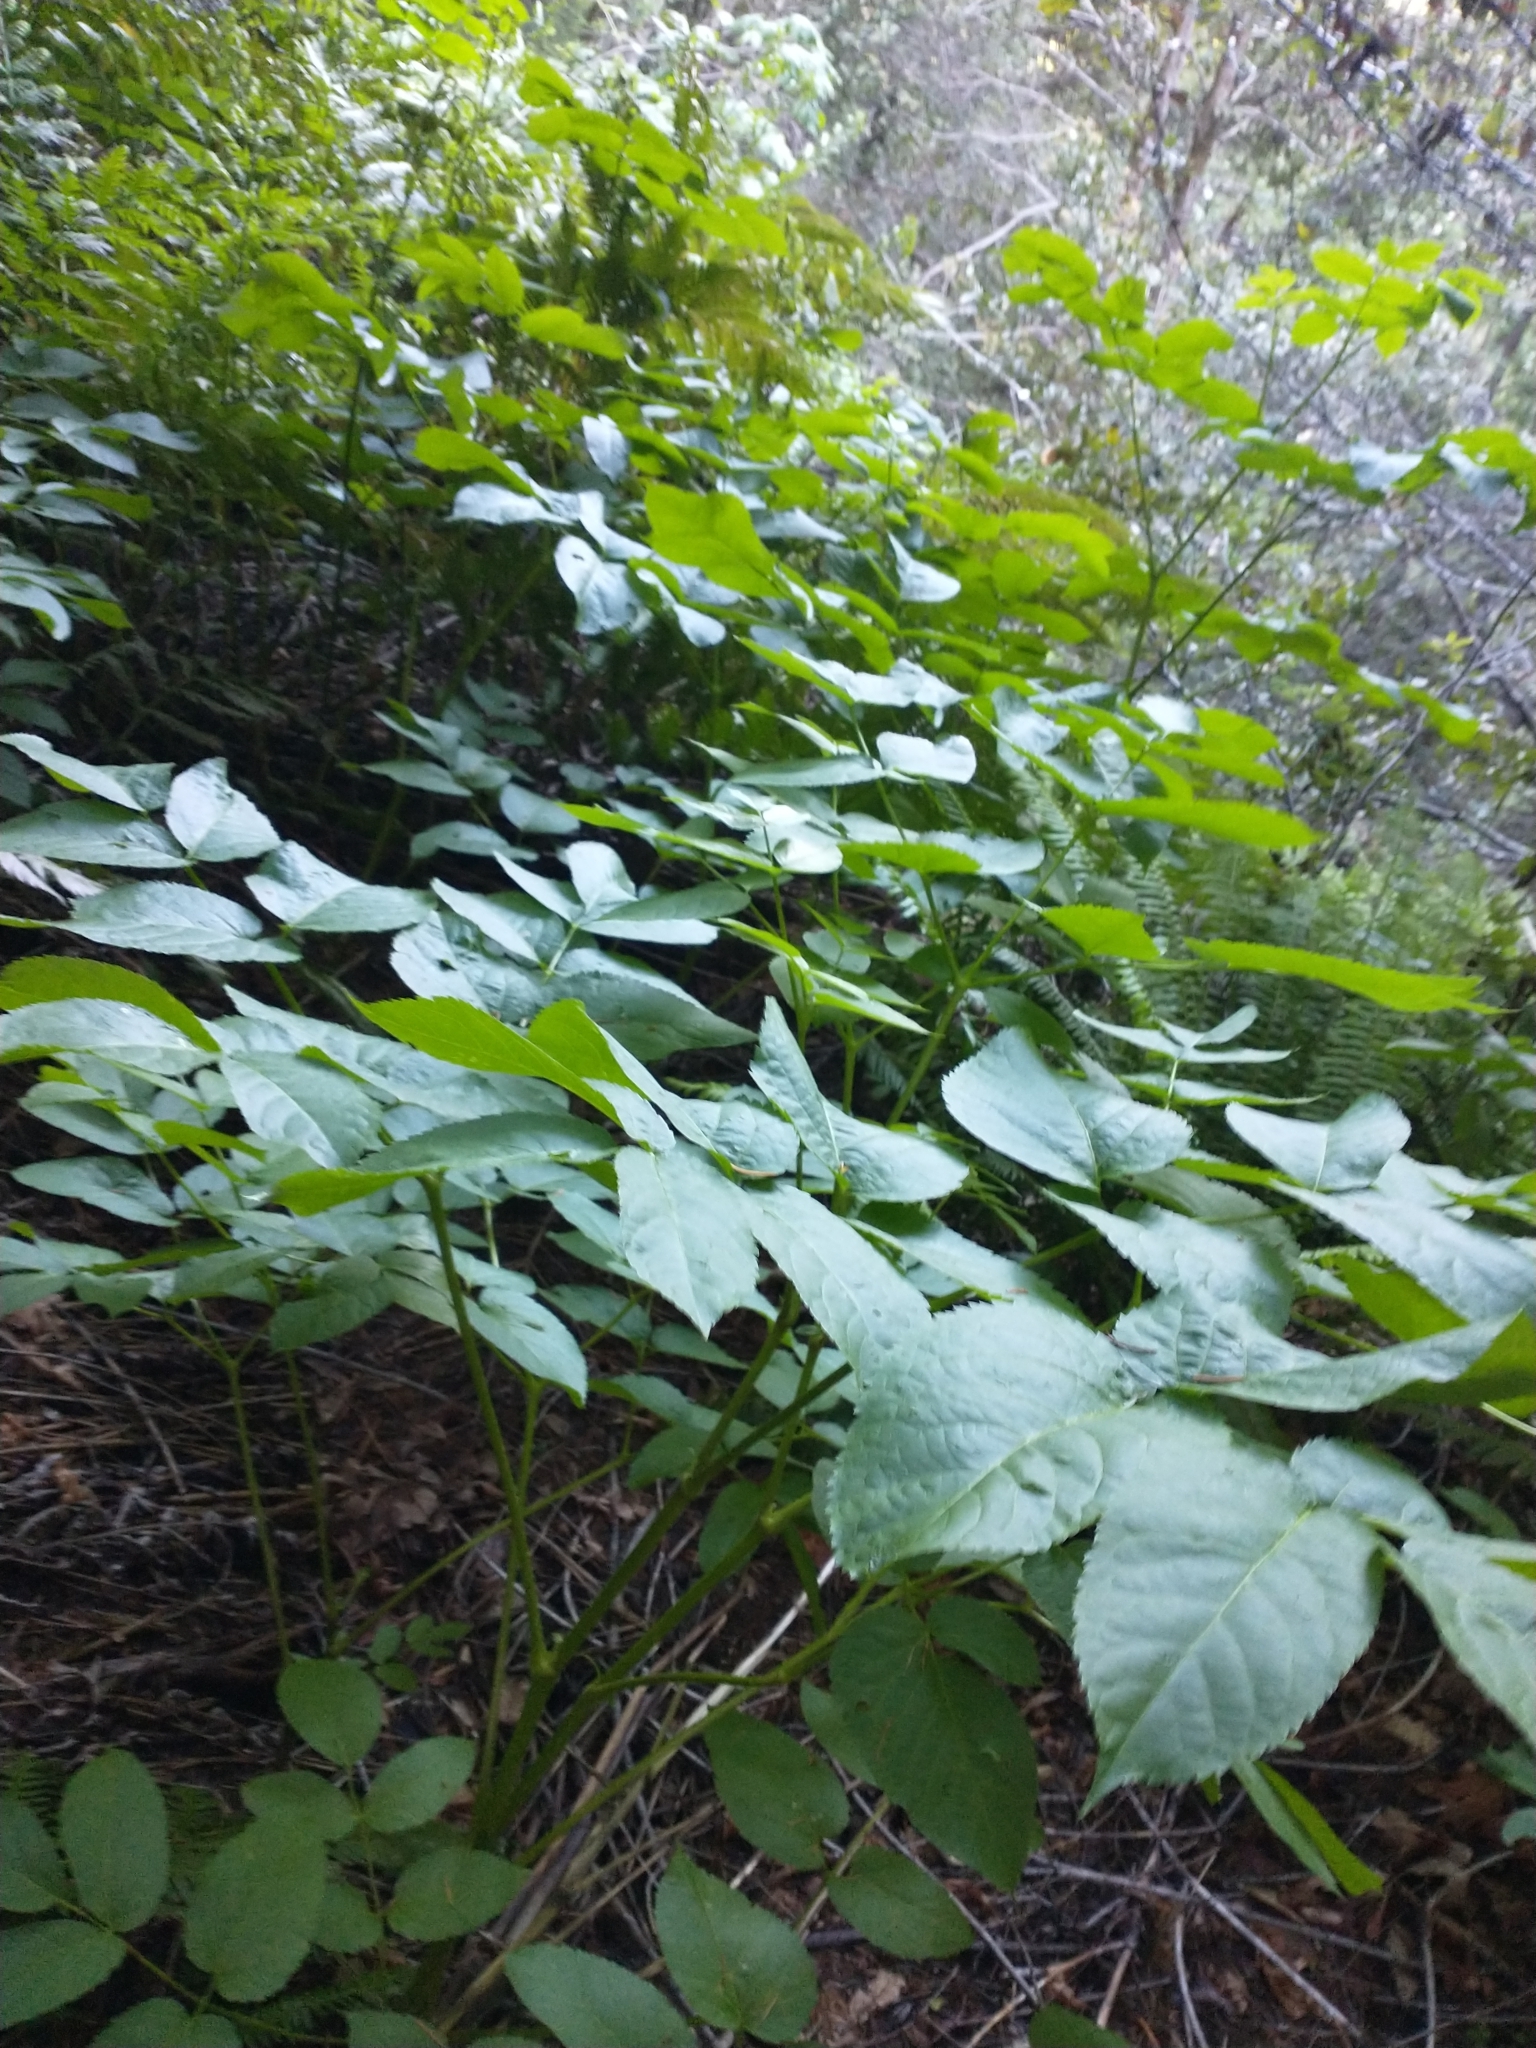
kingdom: Plantae
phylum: Tracheophyta
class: Magnoliopsida
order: Apiales
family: Araliaceae
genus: Aralia
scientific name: Aralia californica
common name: California-ginseng
